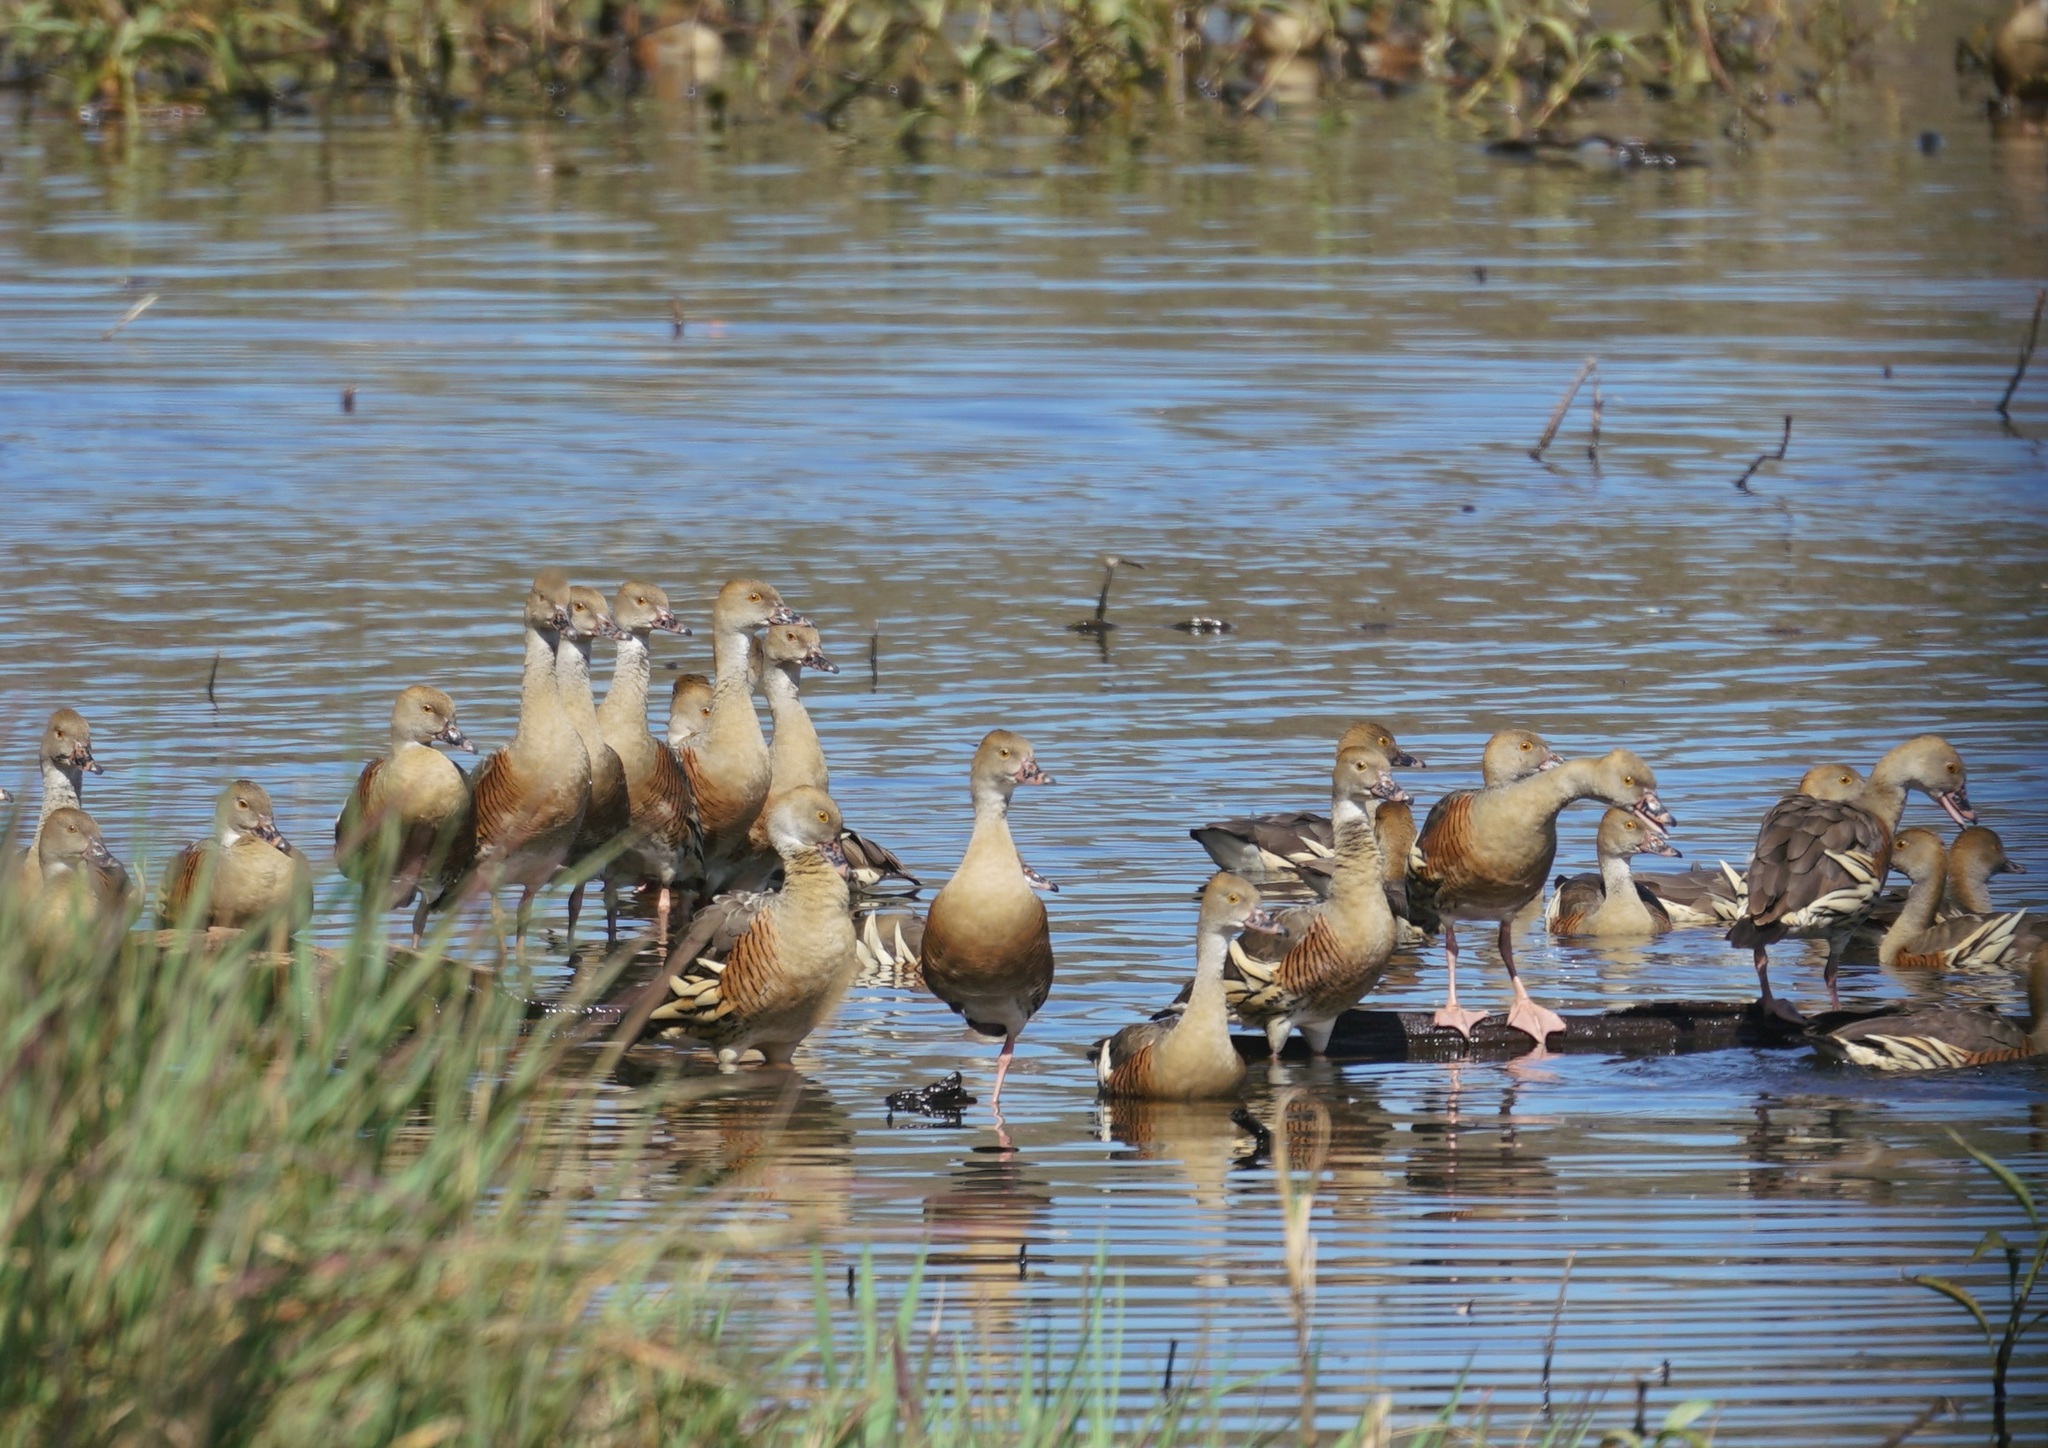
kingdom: Animalia
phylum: Chordata
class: Aves
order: Anseriformes
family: Anatidae
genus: Dendrocygna
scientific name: Dendrocygna eytoni
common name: Plumed whistling-duck
